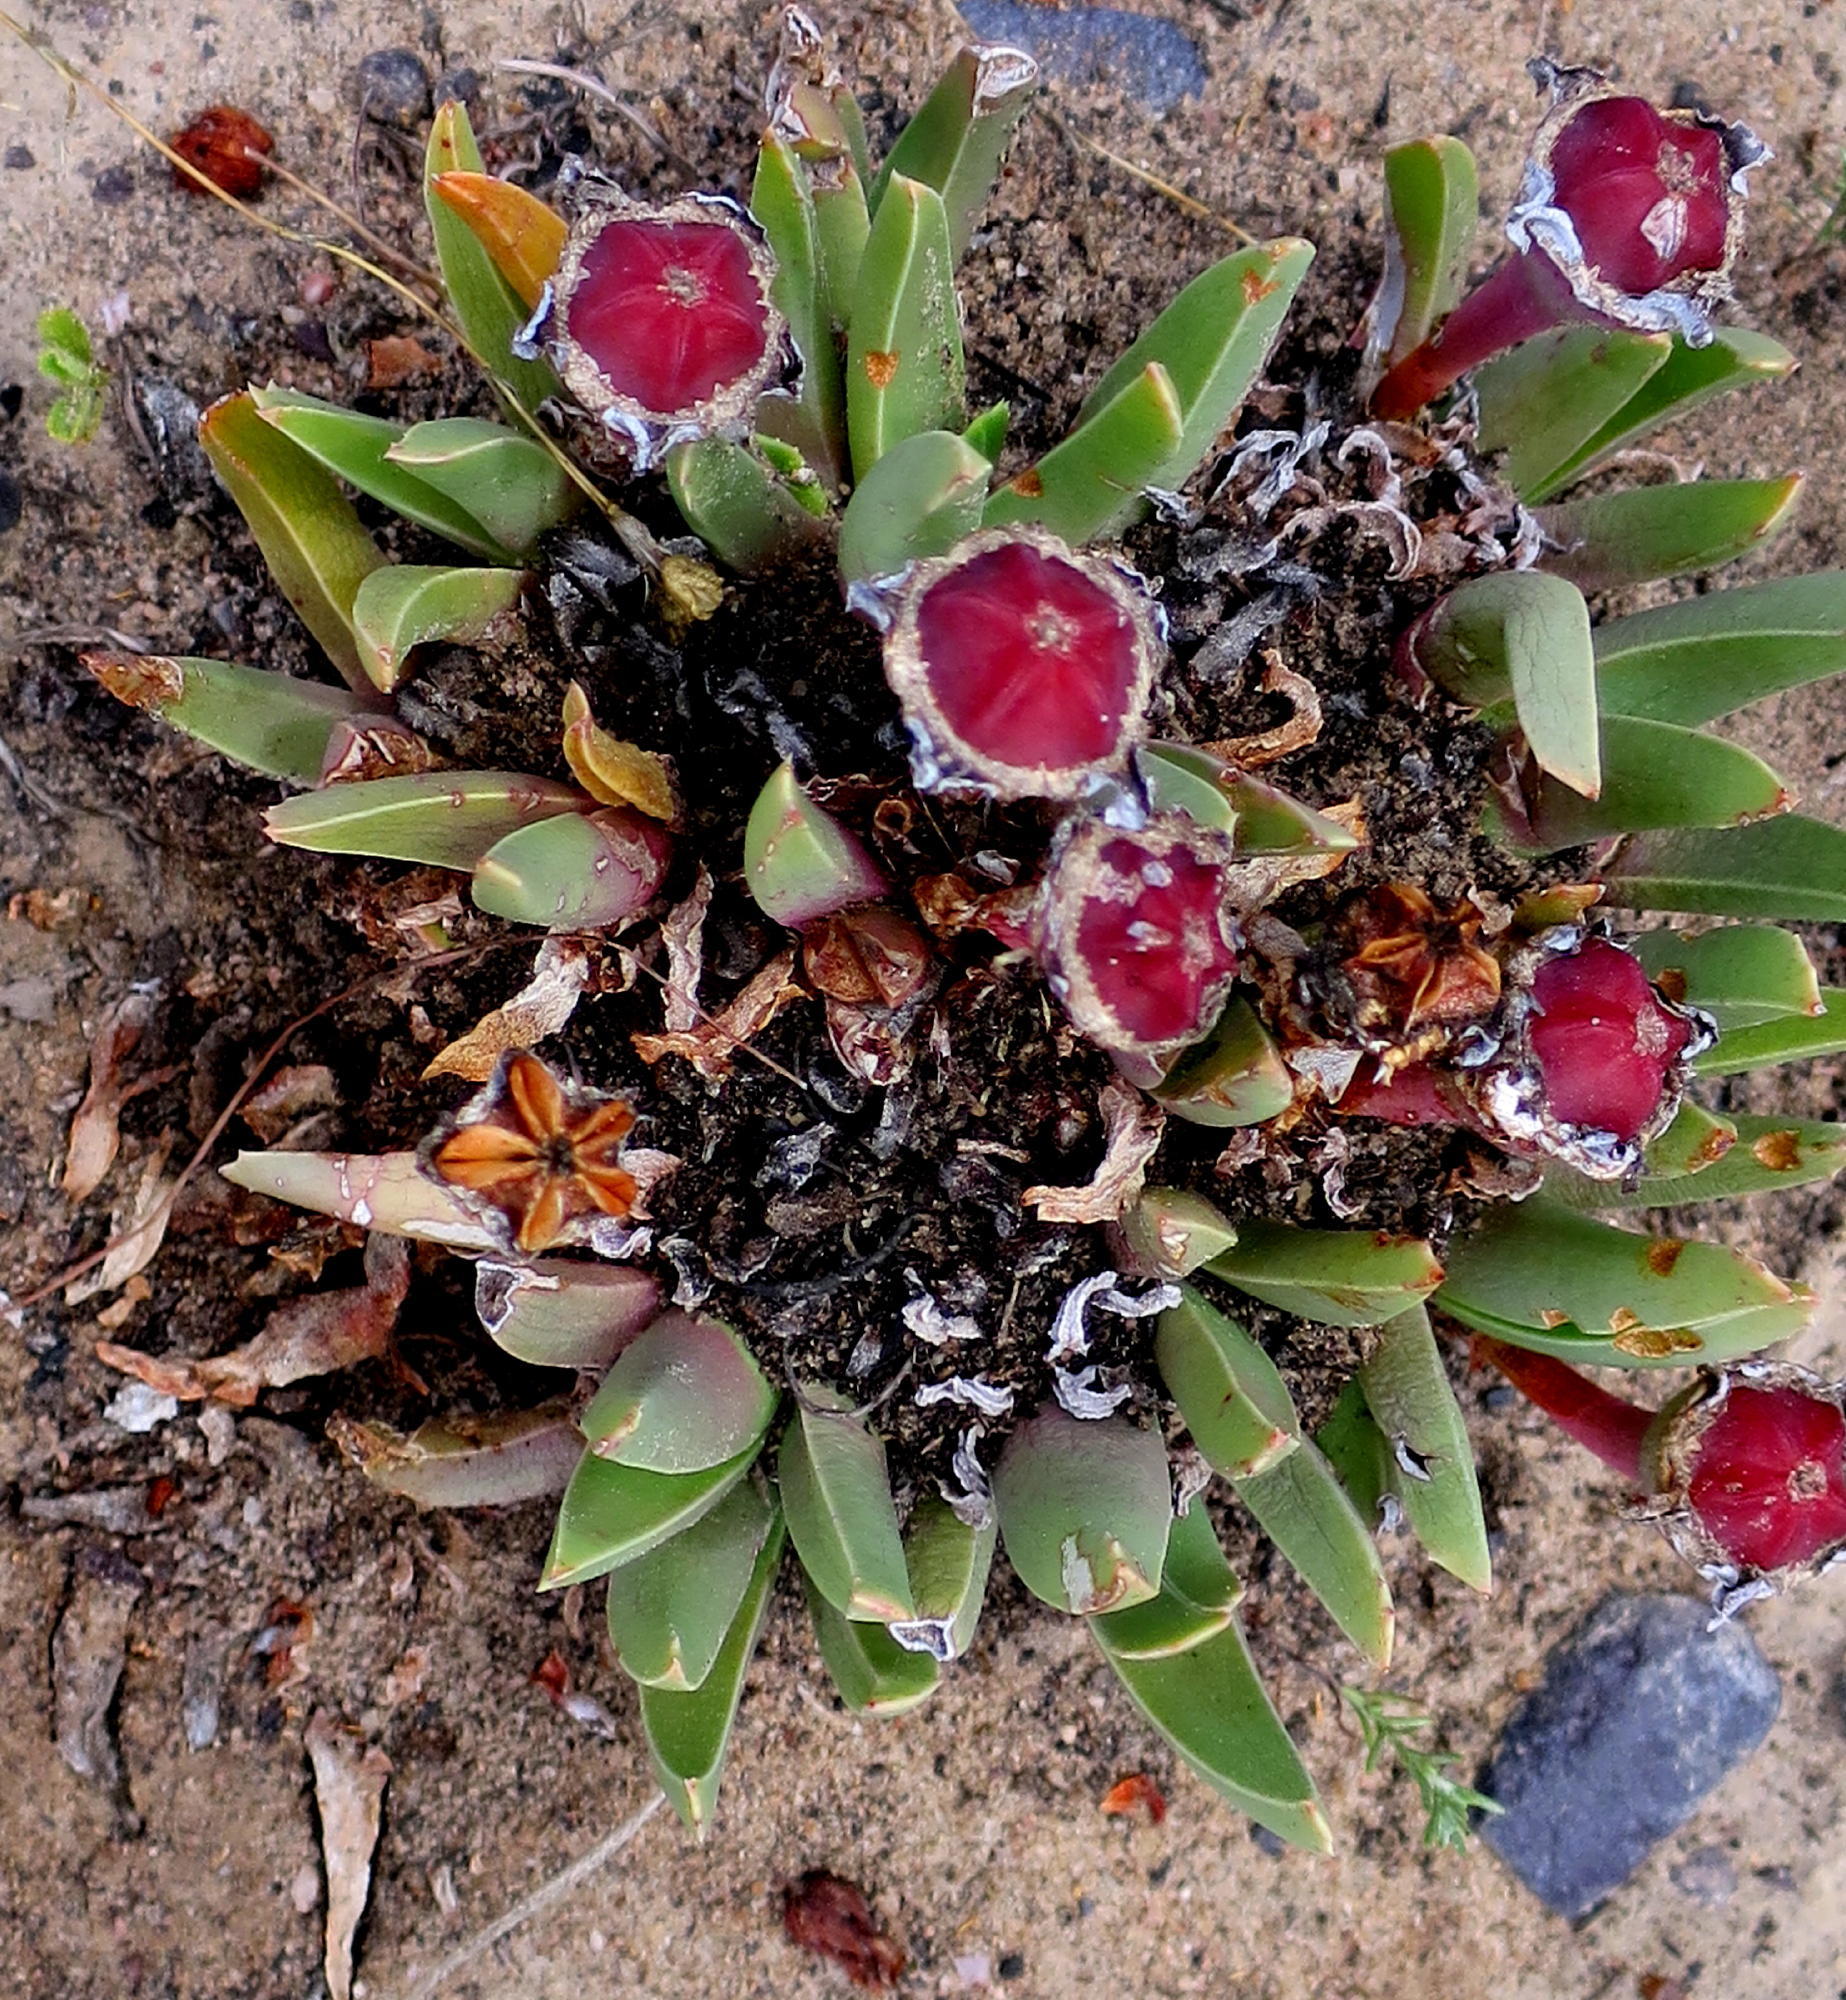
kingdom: Plantae
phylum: Tracheophyta
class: Magnoliopsida
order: Caryophyllales
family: Aizoaceae
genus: Acrodon
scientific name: Acrodon bellidiflorus
